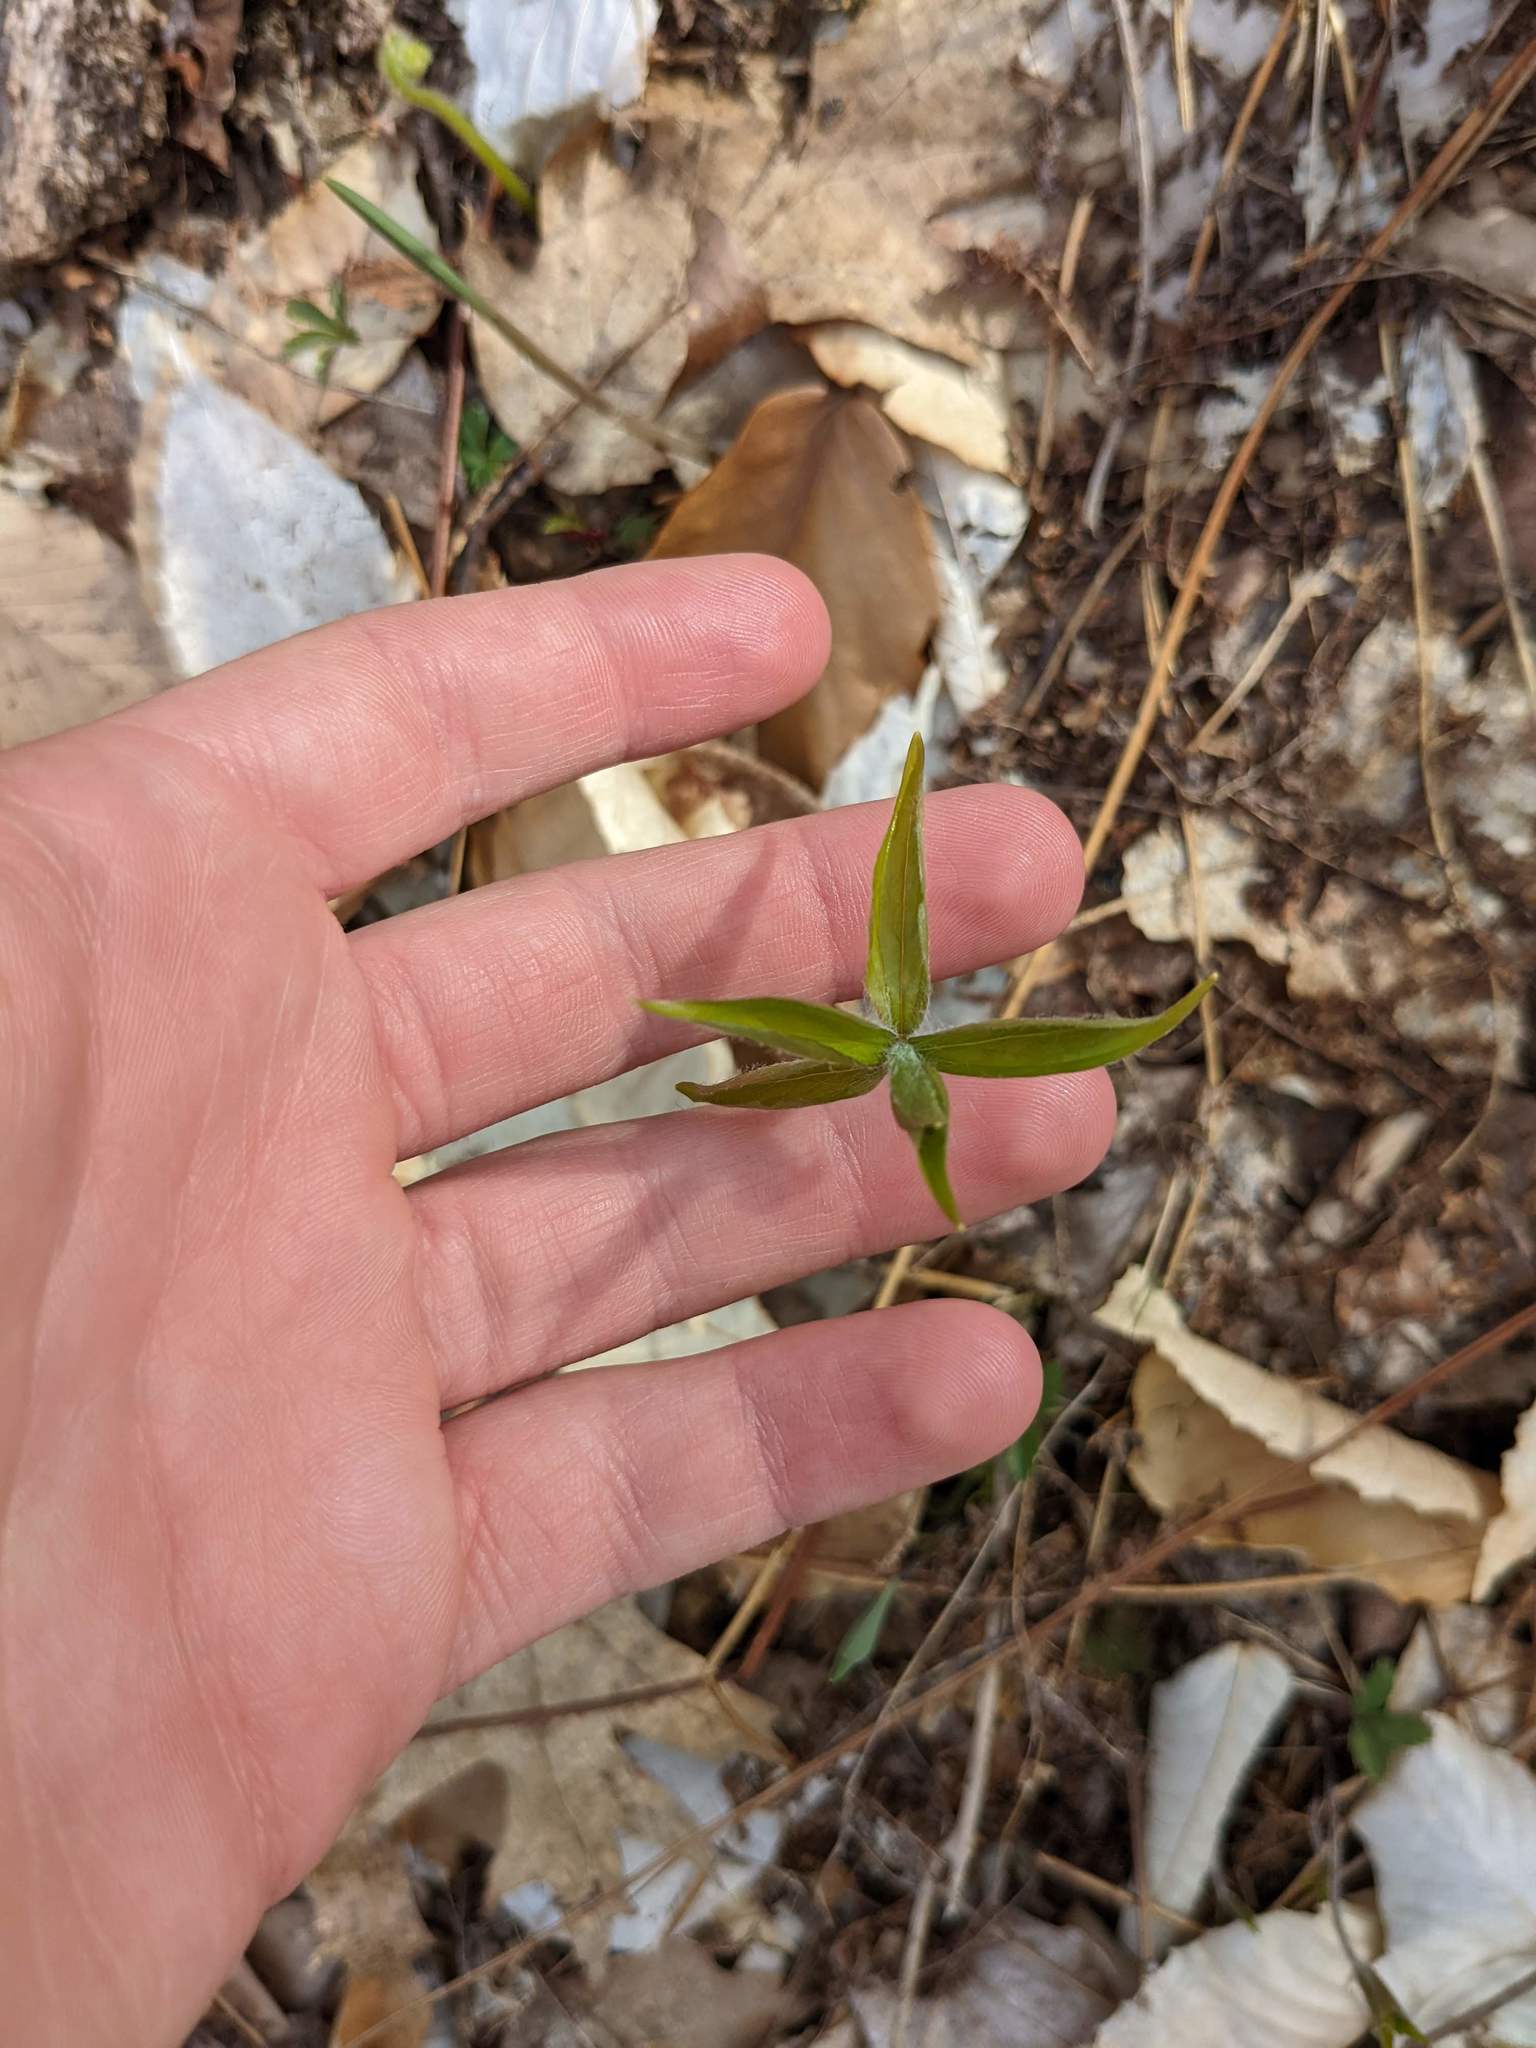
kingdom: Plantae
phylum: Tracheophyta
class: Liliopsida
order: Liliales
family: Liliaceae
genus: Medeola
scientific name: Medeola virginiana
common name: Indian cucumber-root
